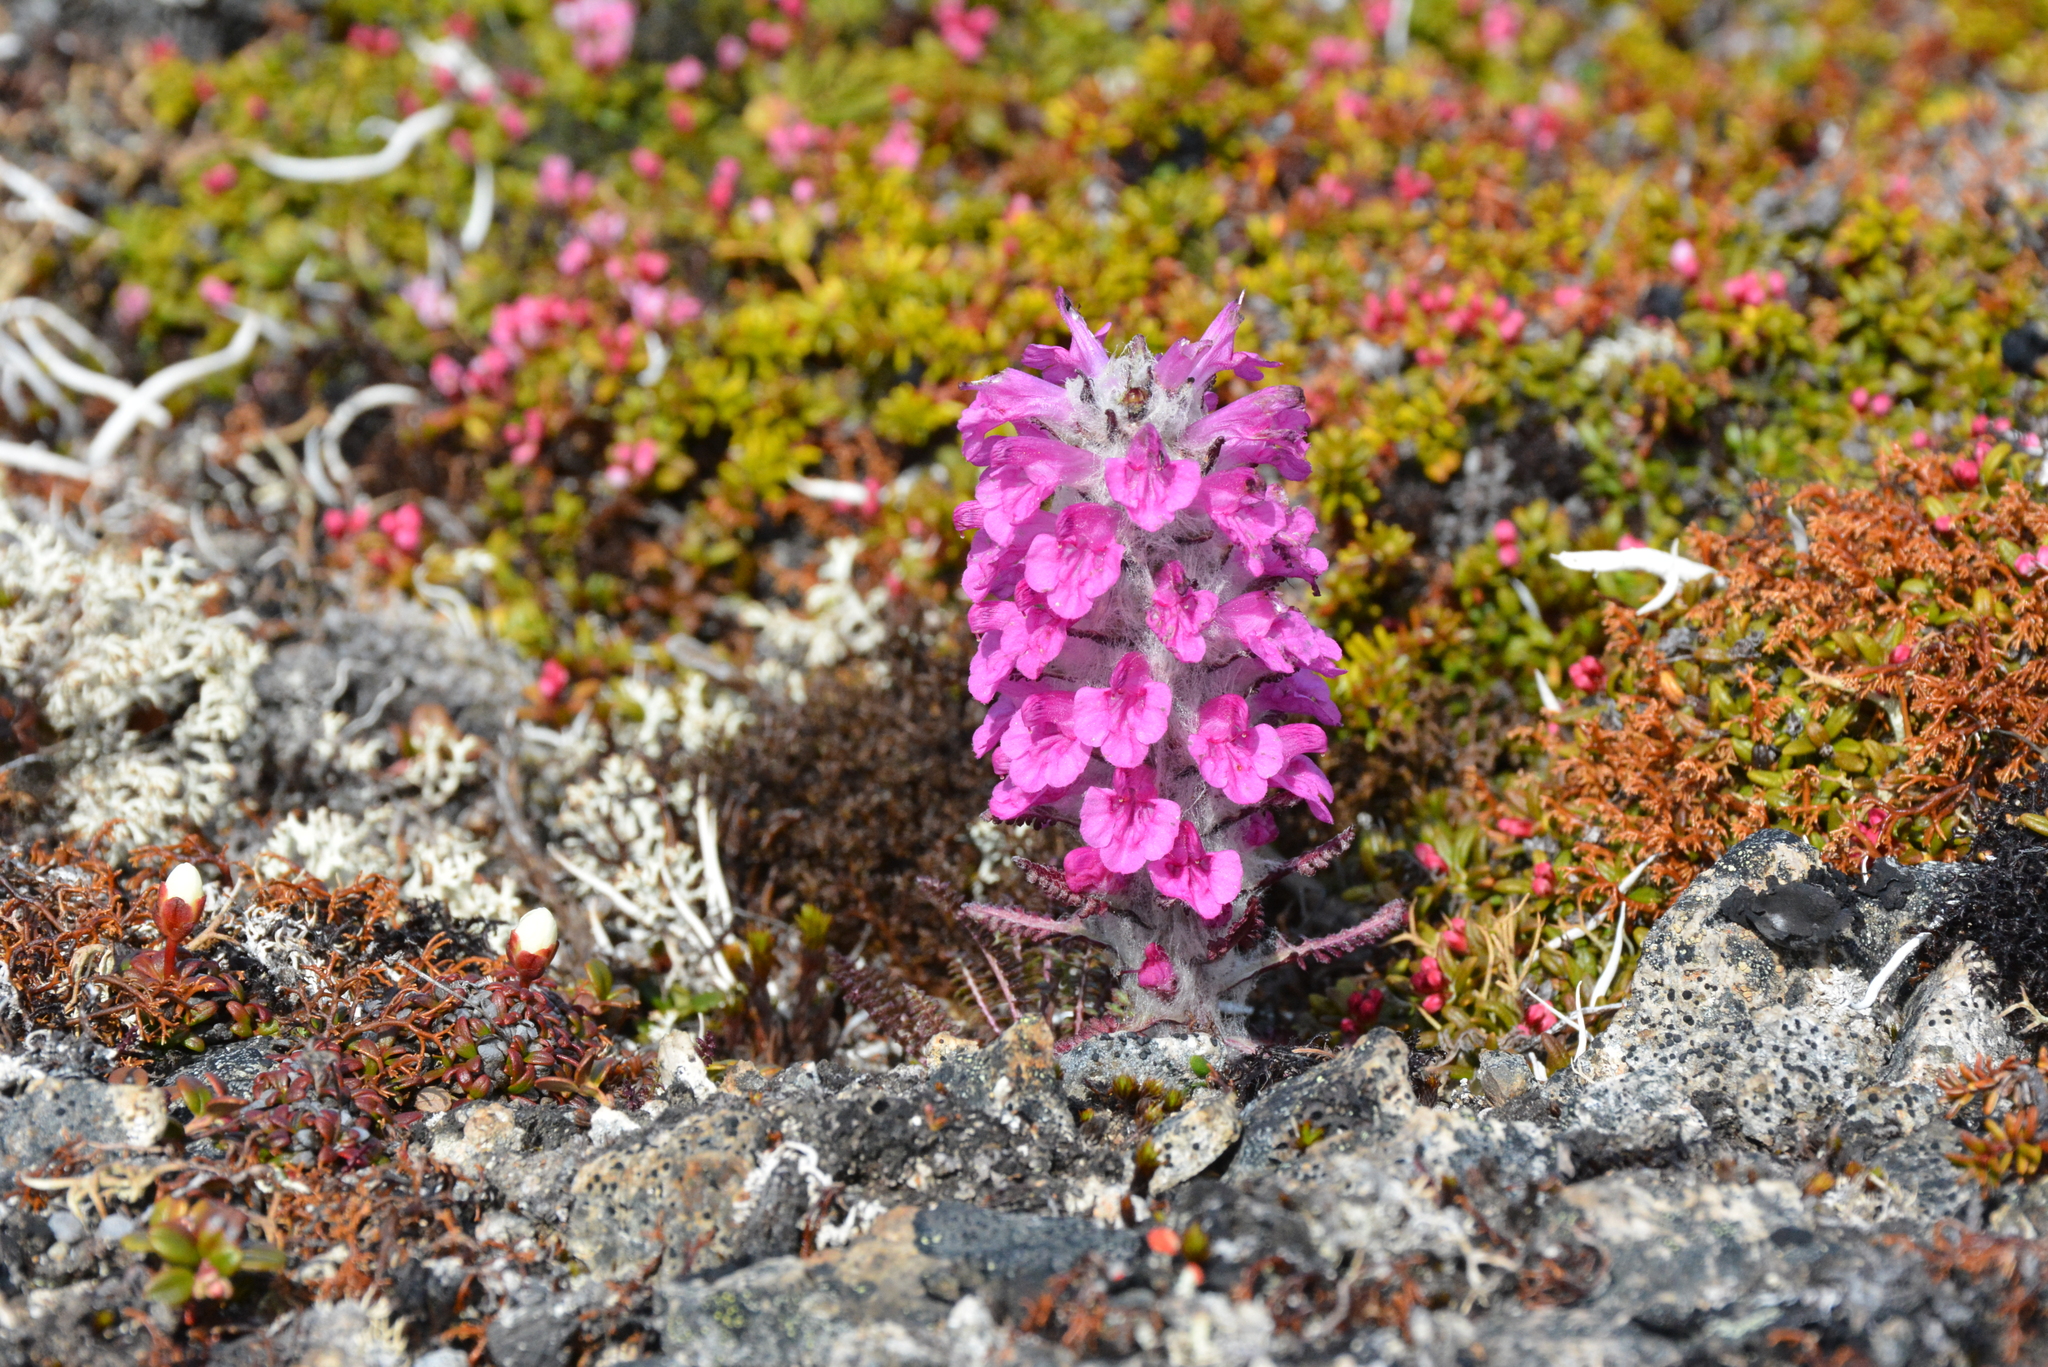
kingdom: Plantae
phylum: Tracheophyta
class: Magnoliopsida
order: Lamiales
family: Orobanchaceae
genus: Pedicularis
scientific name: Pedicularis lanata
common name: Woolly lousewort
